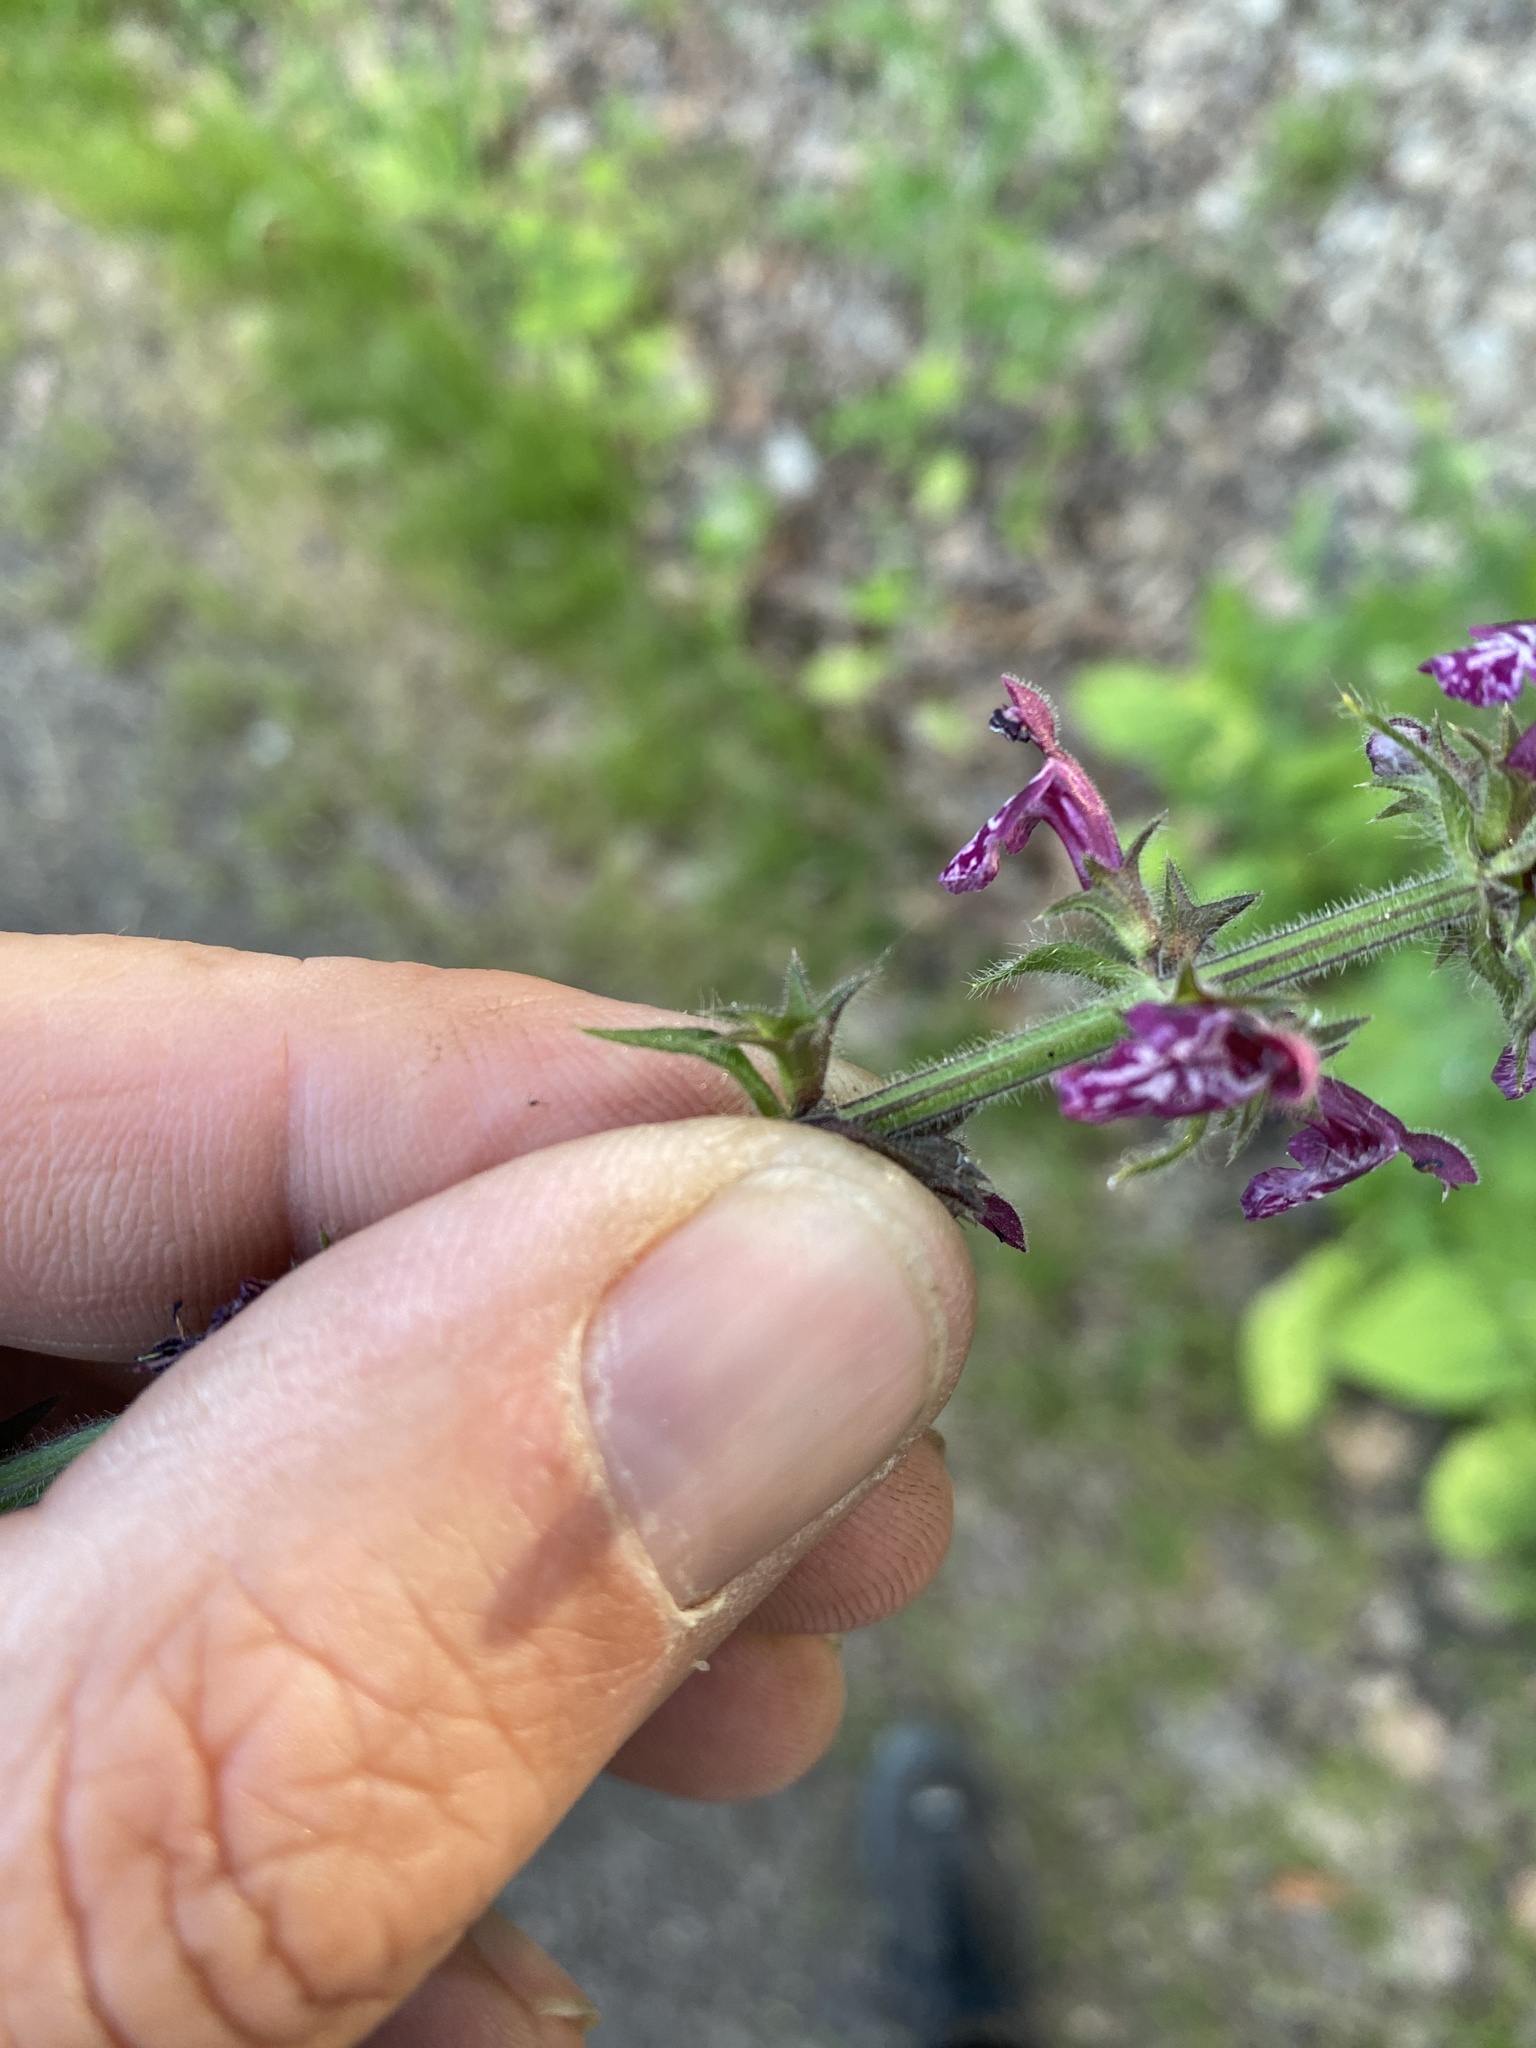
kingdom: Plantae
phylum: Tracheophyta
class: Magnoliopsida
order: Lamiales
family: Lamiaceae
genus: Stachys
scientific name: Stachys sylvatica
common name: Hedge woundwort
